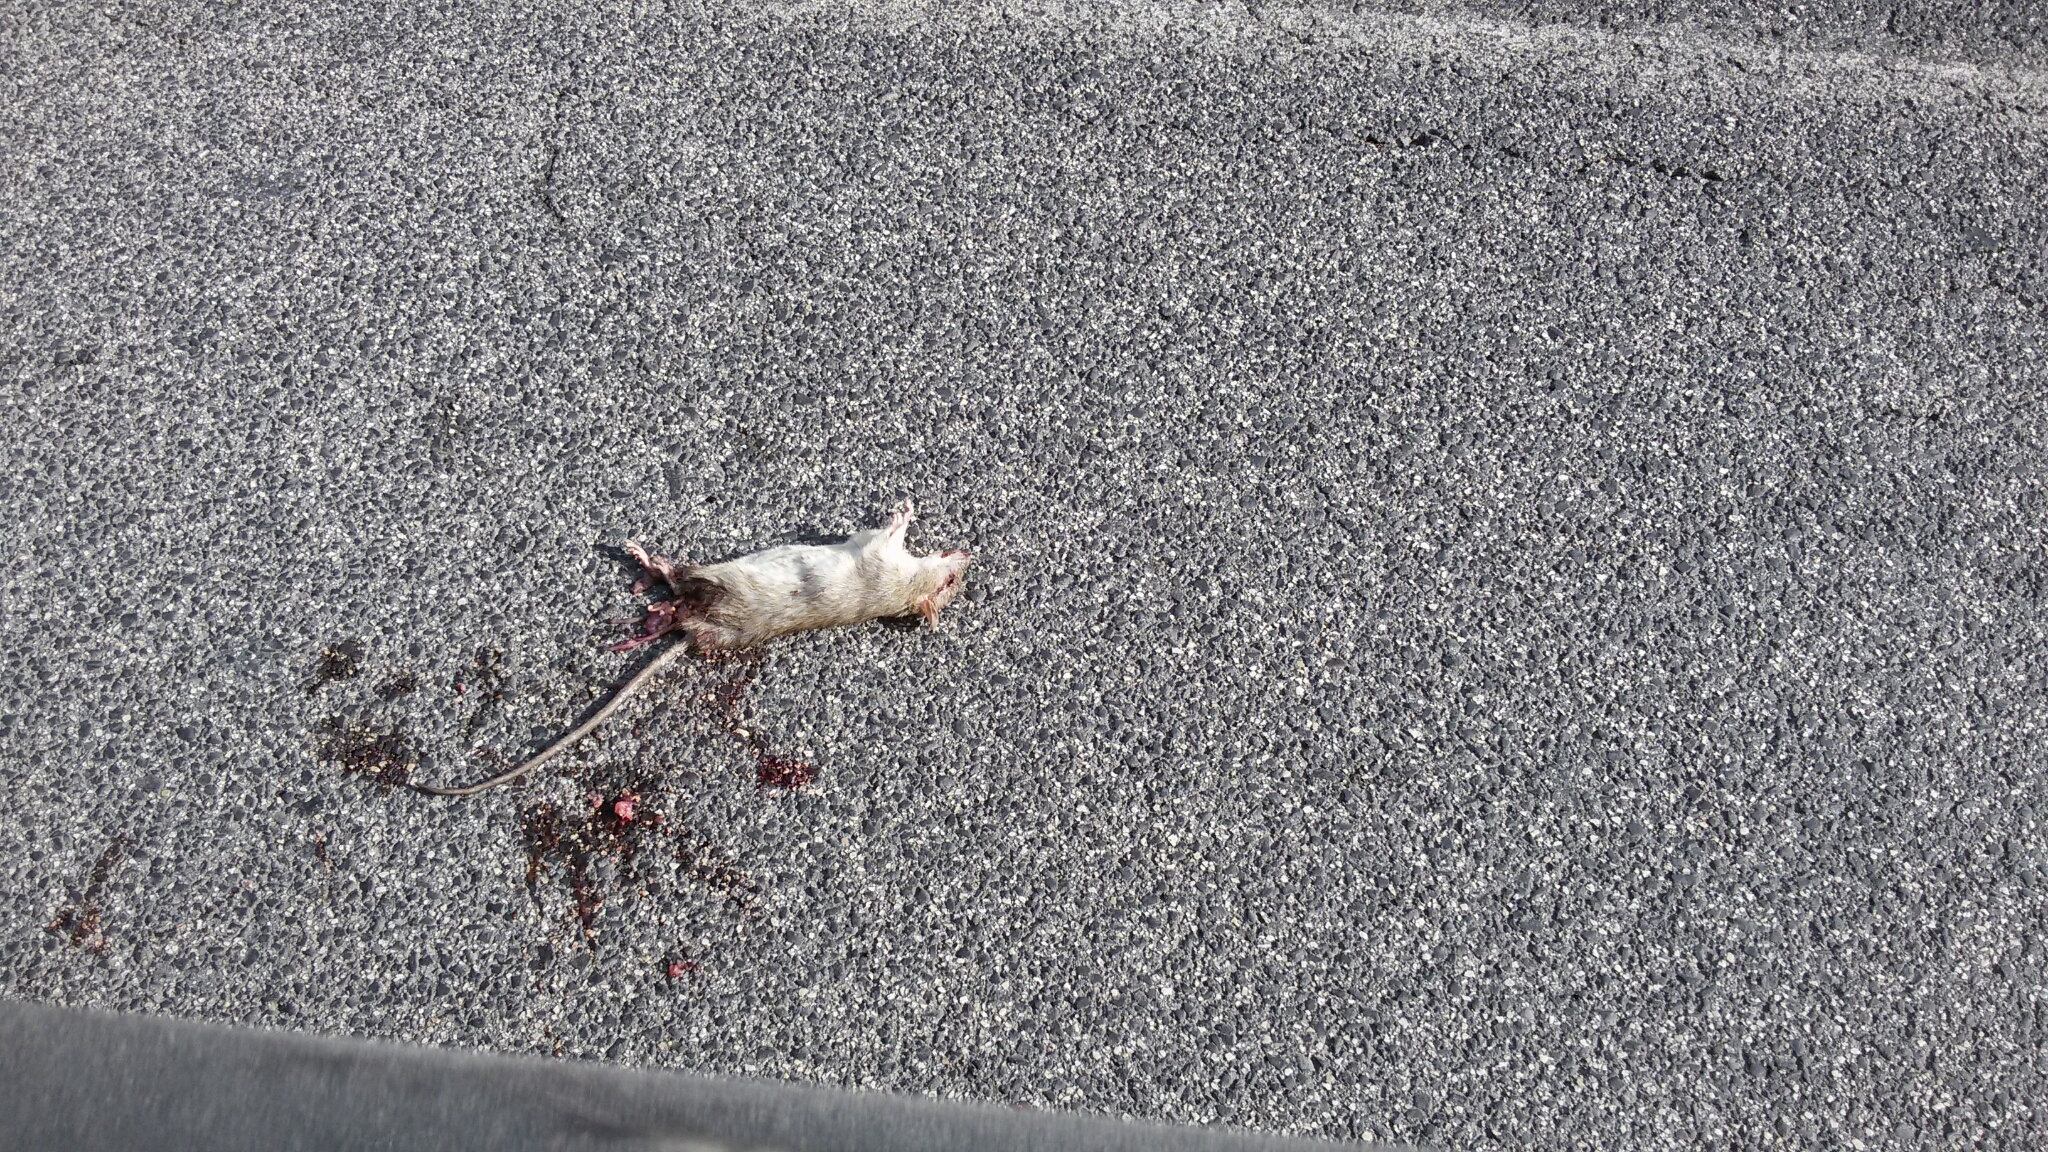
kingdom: Animalia
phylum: Chordata
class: Mammalia
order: Rodentia
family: Muridae
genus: Rattus
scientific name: Rattus rattus
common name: Black rat
